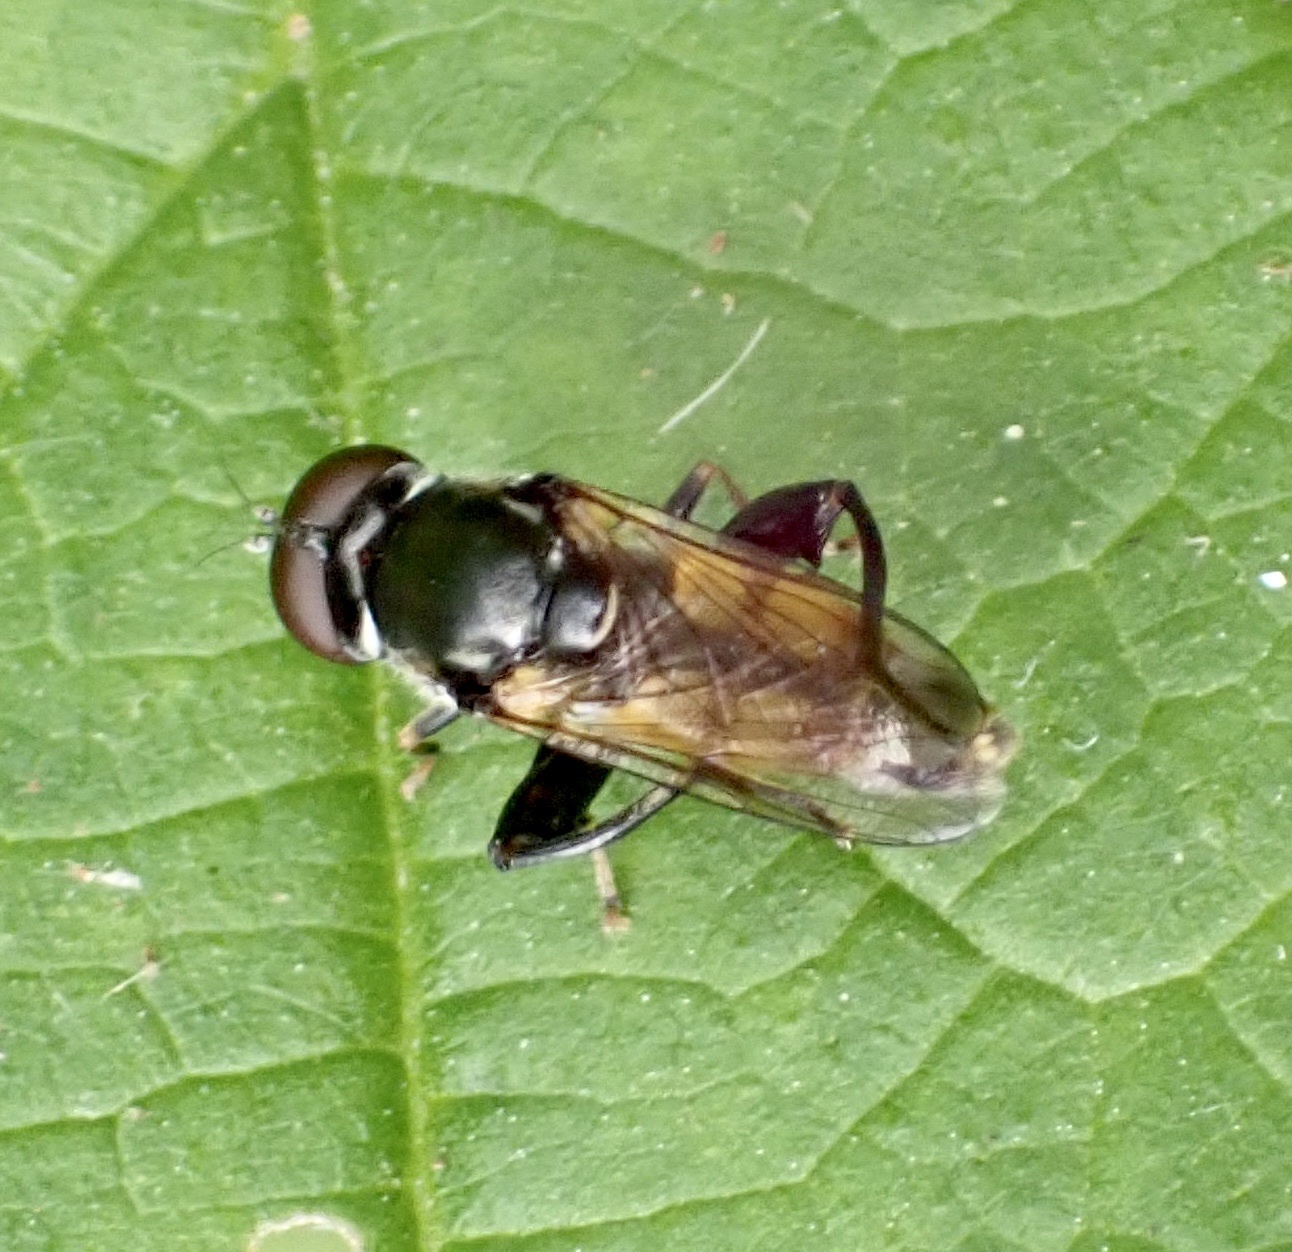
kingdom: Animalia
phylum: Arthropoda
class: Insecta
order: Diptera
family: Syrphidae
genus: Tropidia
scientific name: Tropidia scita
